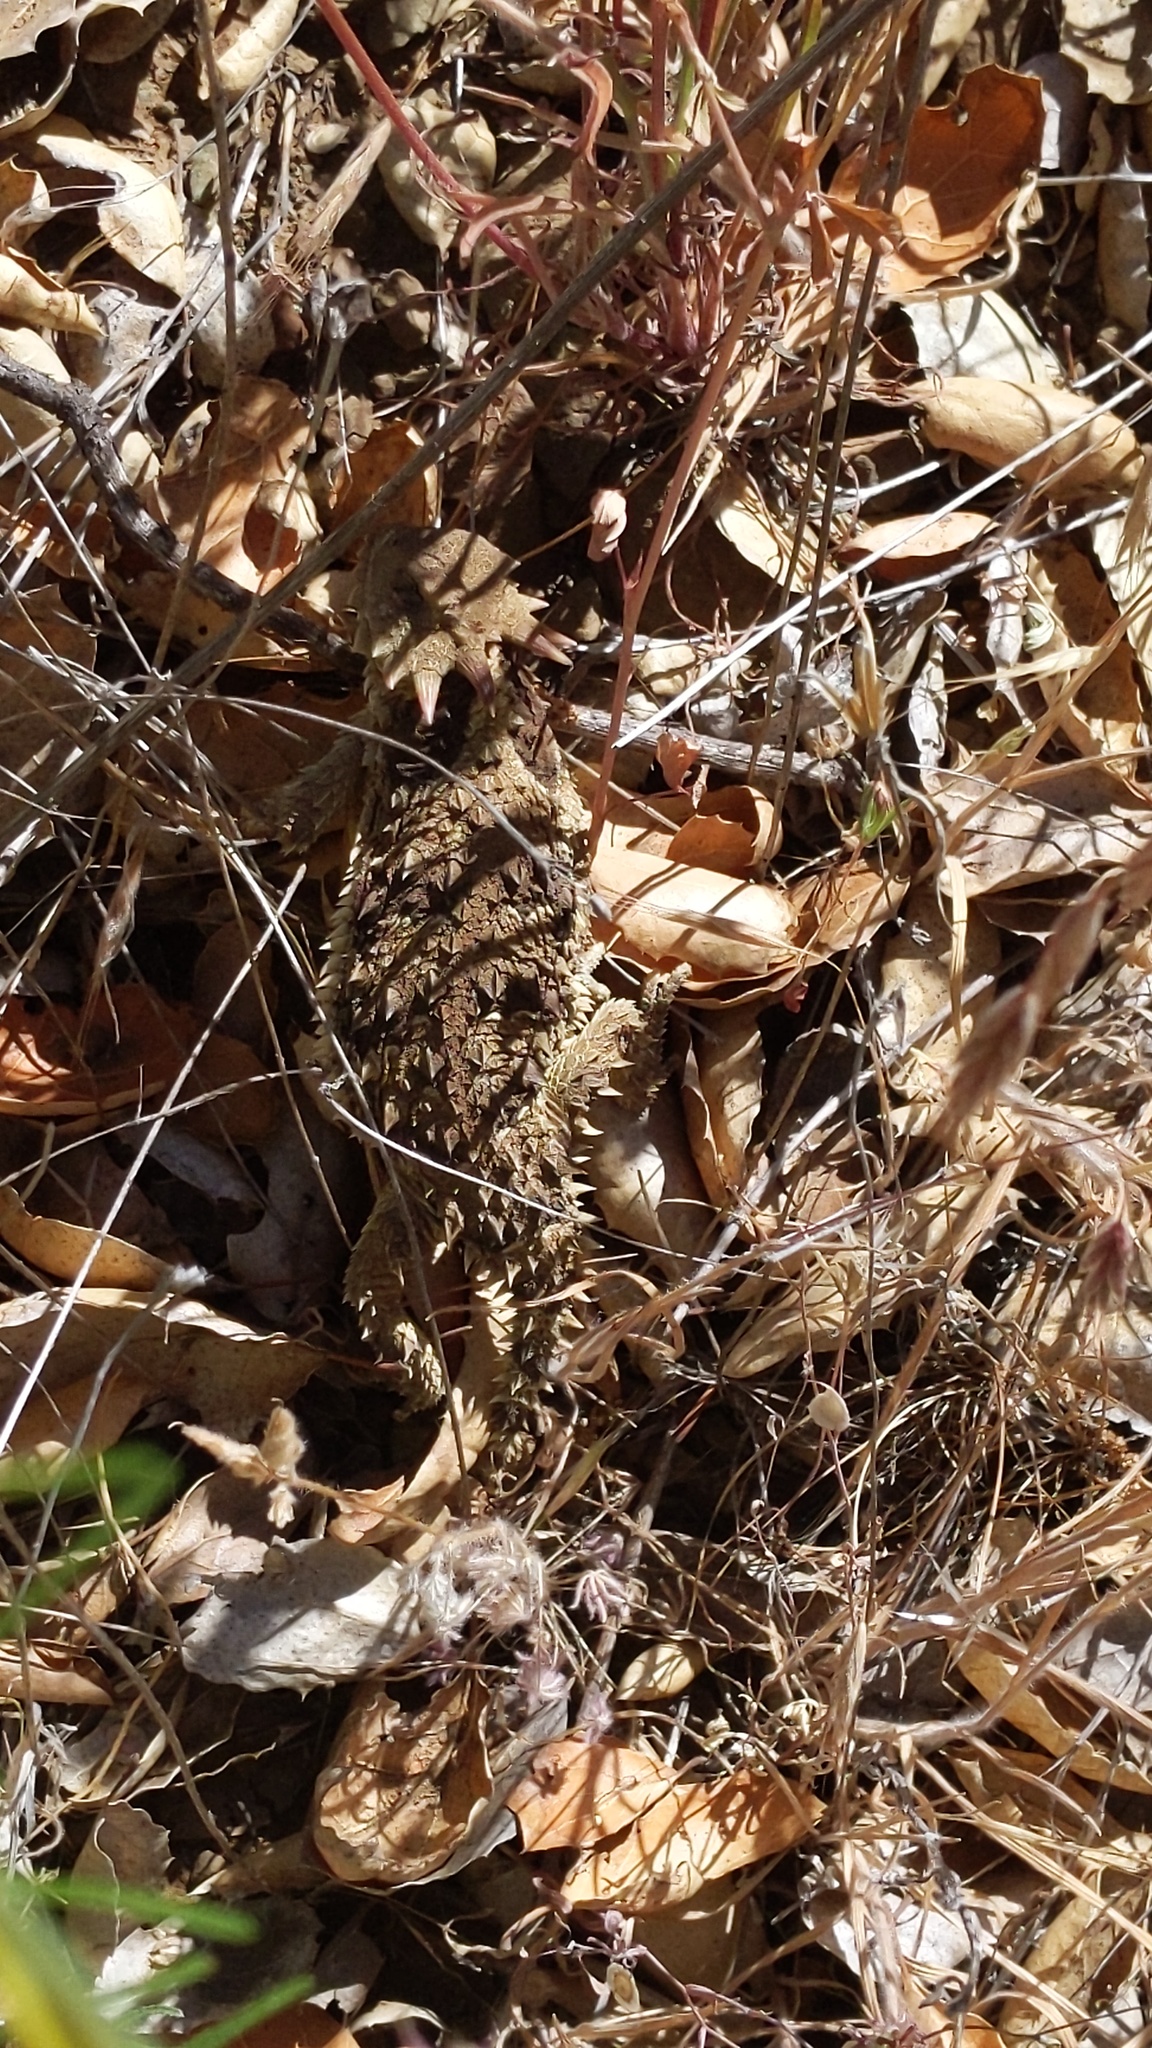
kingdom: Animalia
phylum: Chordata
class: Squamata
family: Phrynosomatidae
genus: Phrynosoma
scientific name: Phrynosoma blainvillii
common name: San diego horned lizard
